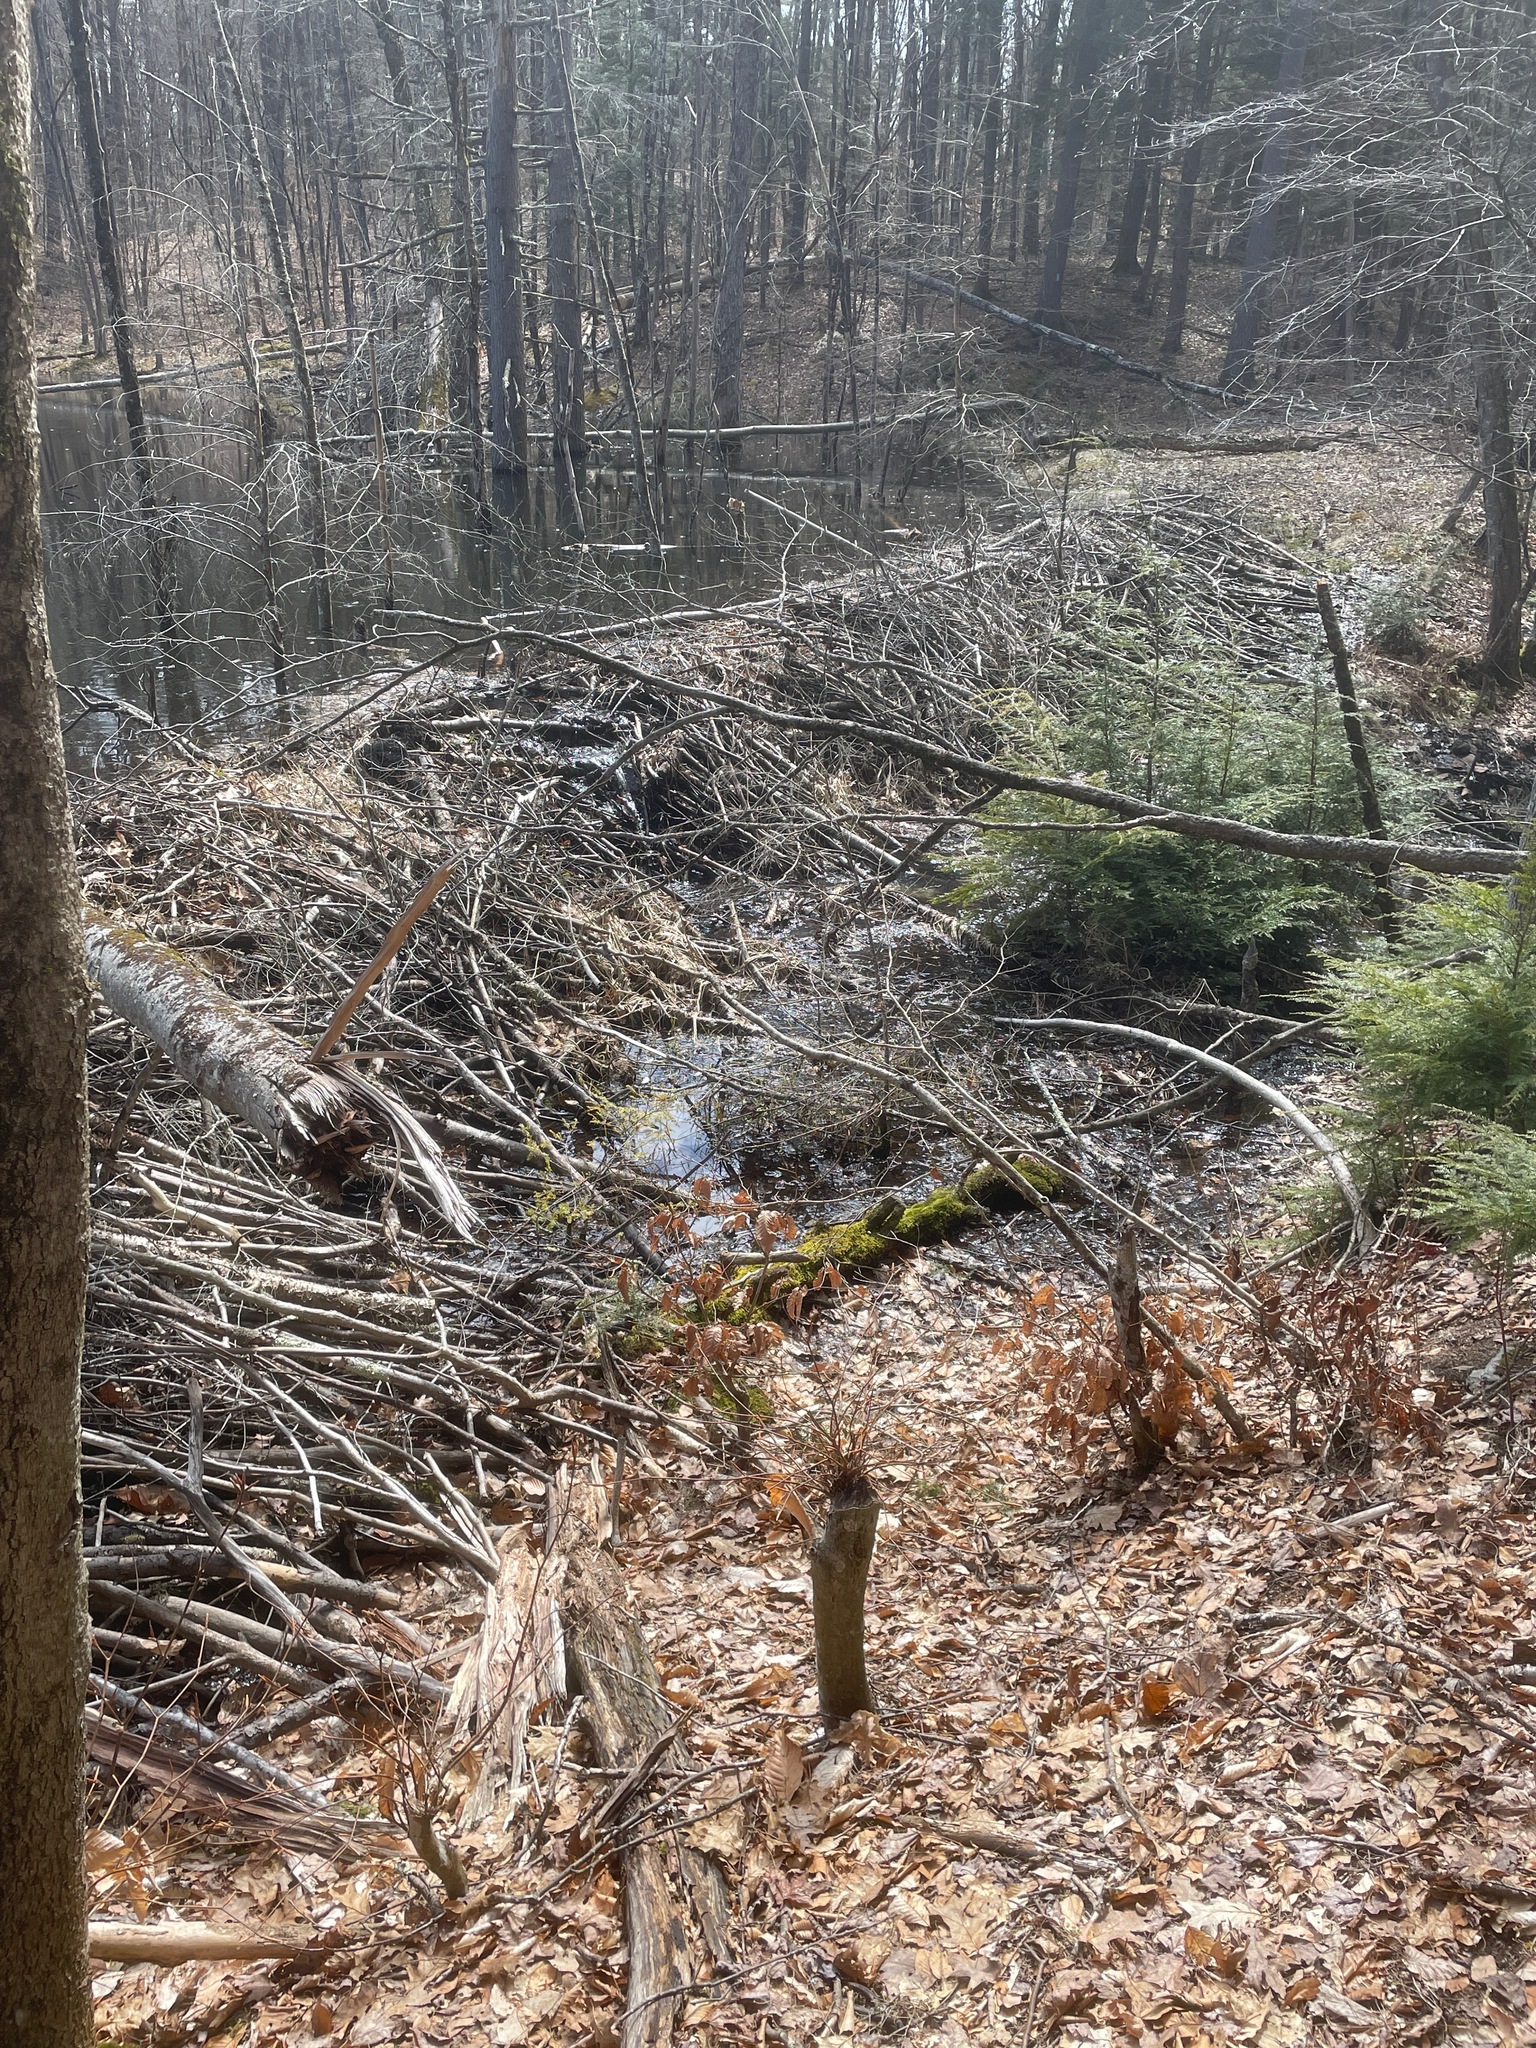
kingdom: Animalia
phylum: Chordata
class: Mammalia
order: Rodentia
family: Castoridae
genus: Castor
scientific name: Castor canadensis
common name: American beaver
